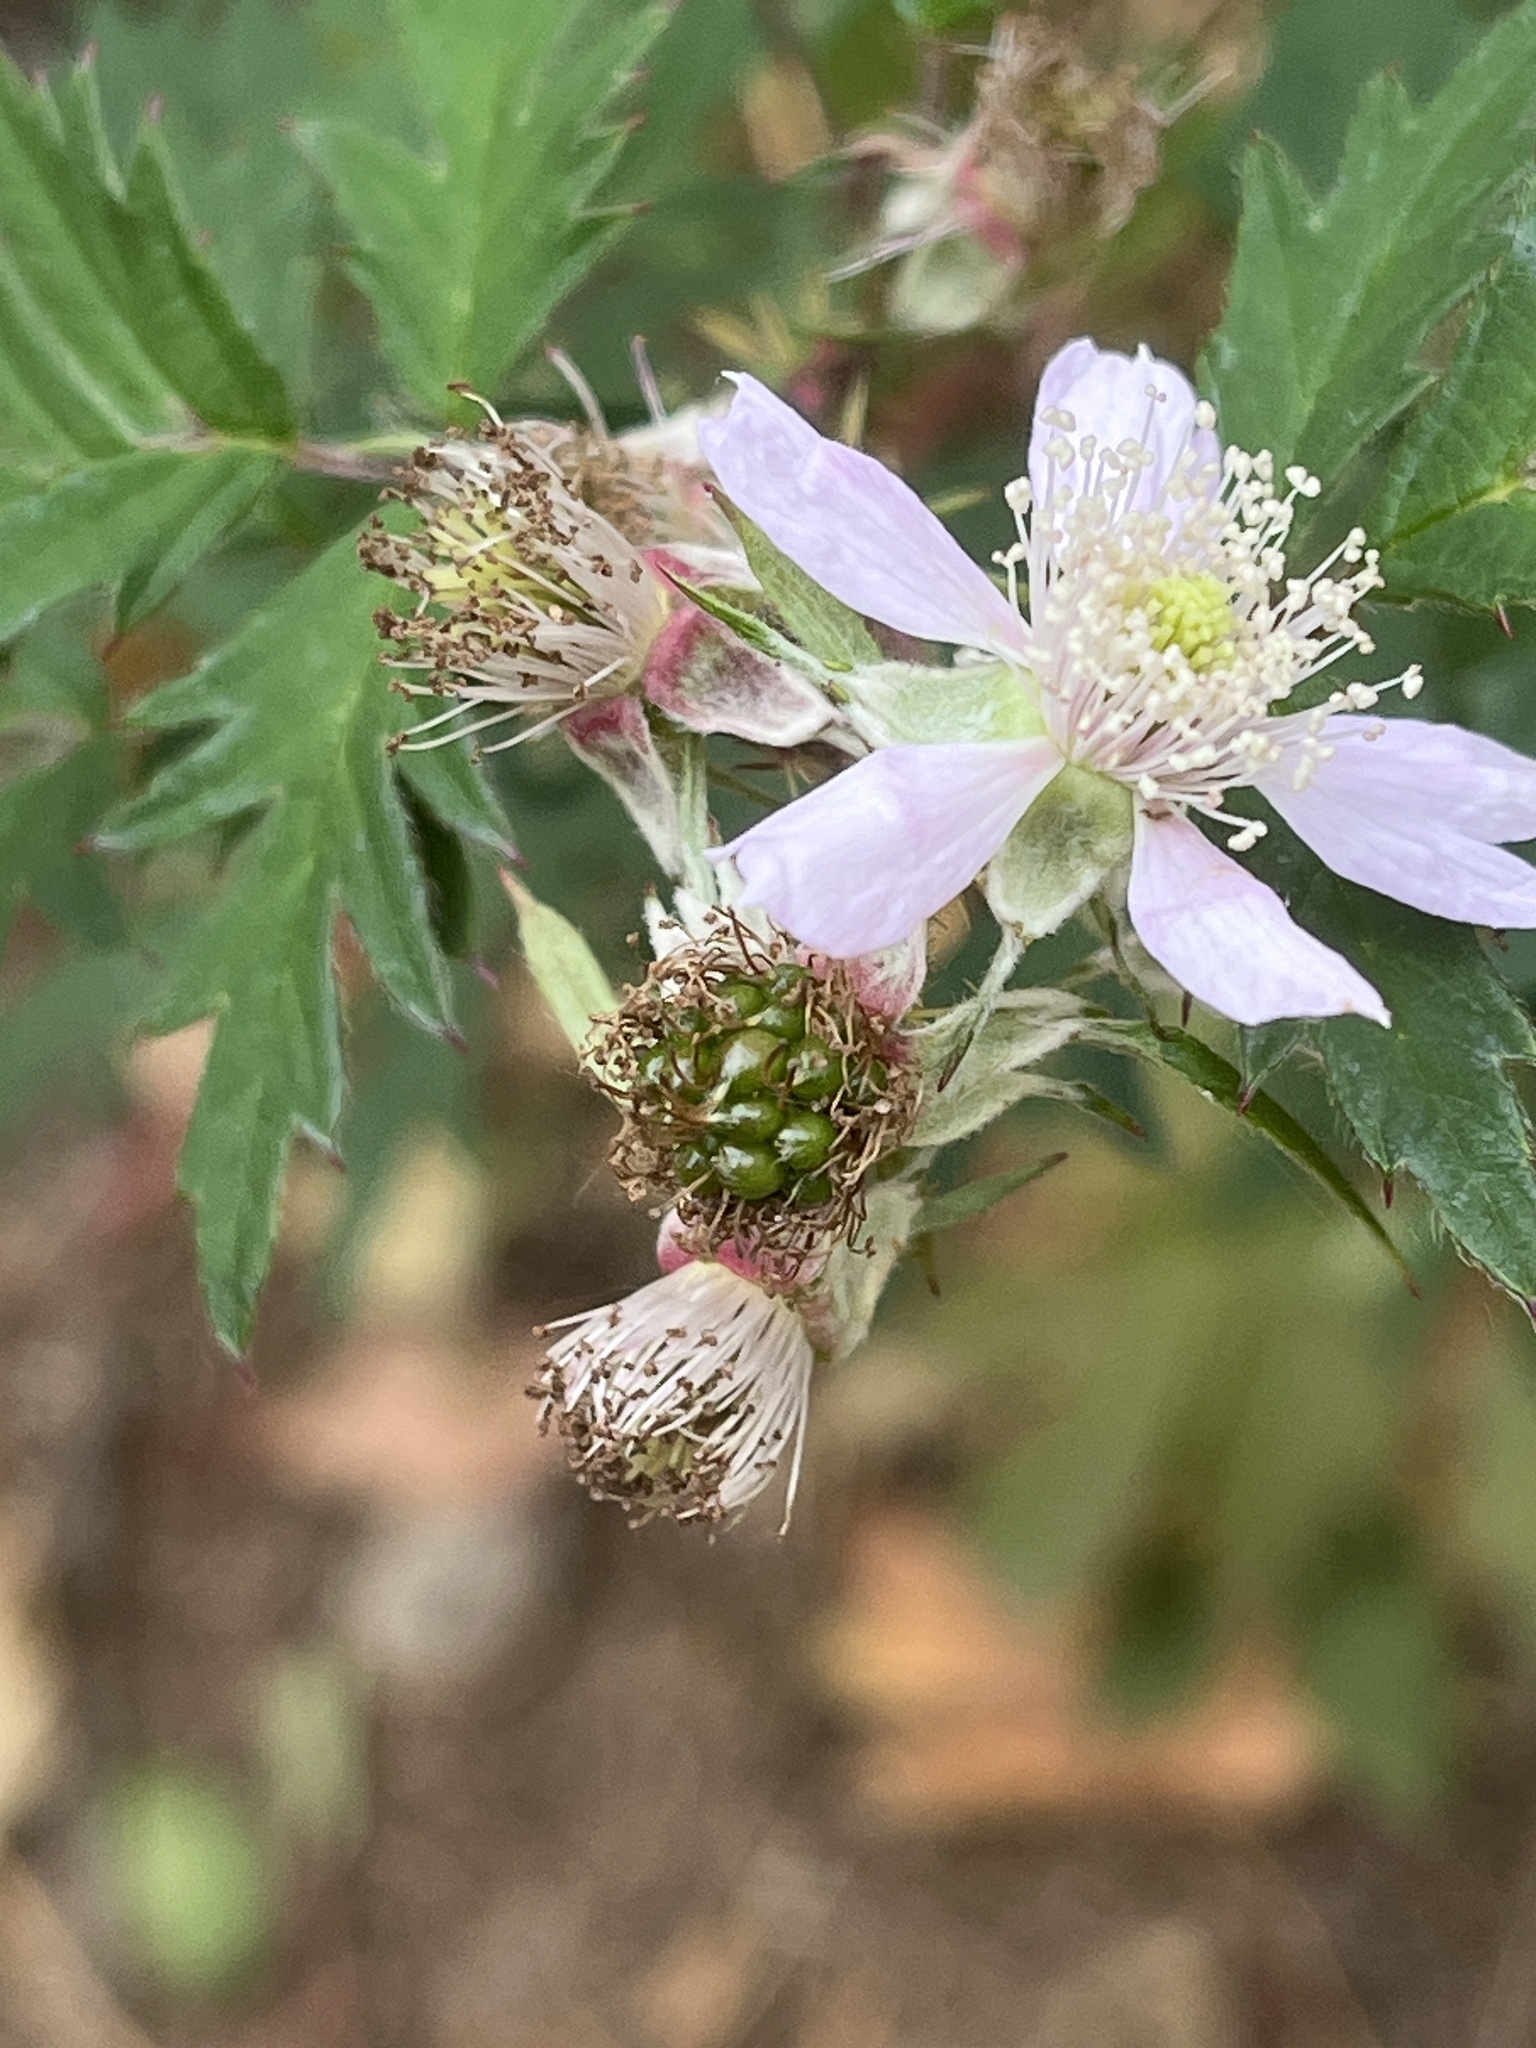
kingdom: Plantae
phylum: Tracheophyta
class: Magnoliopsida
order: Rosales
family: Rosaceae
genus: Rubus
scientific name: Rubus laciniatus
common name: Evergreen blackberry
